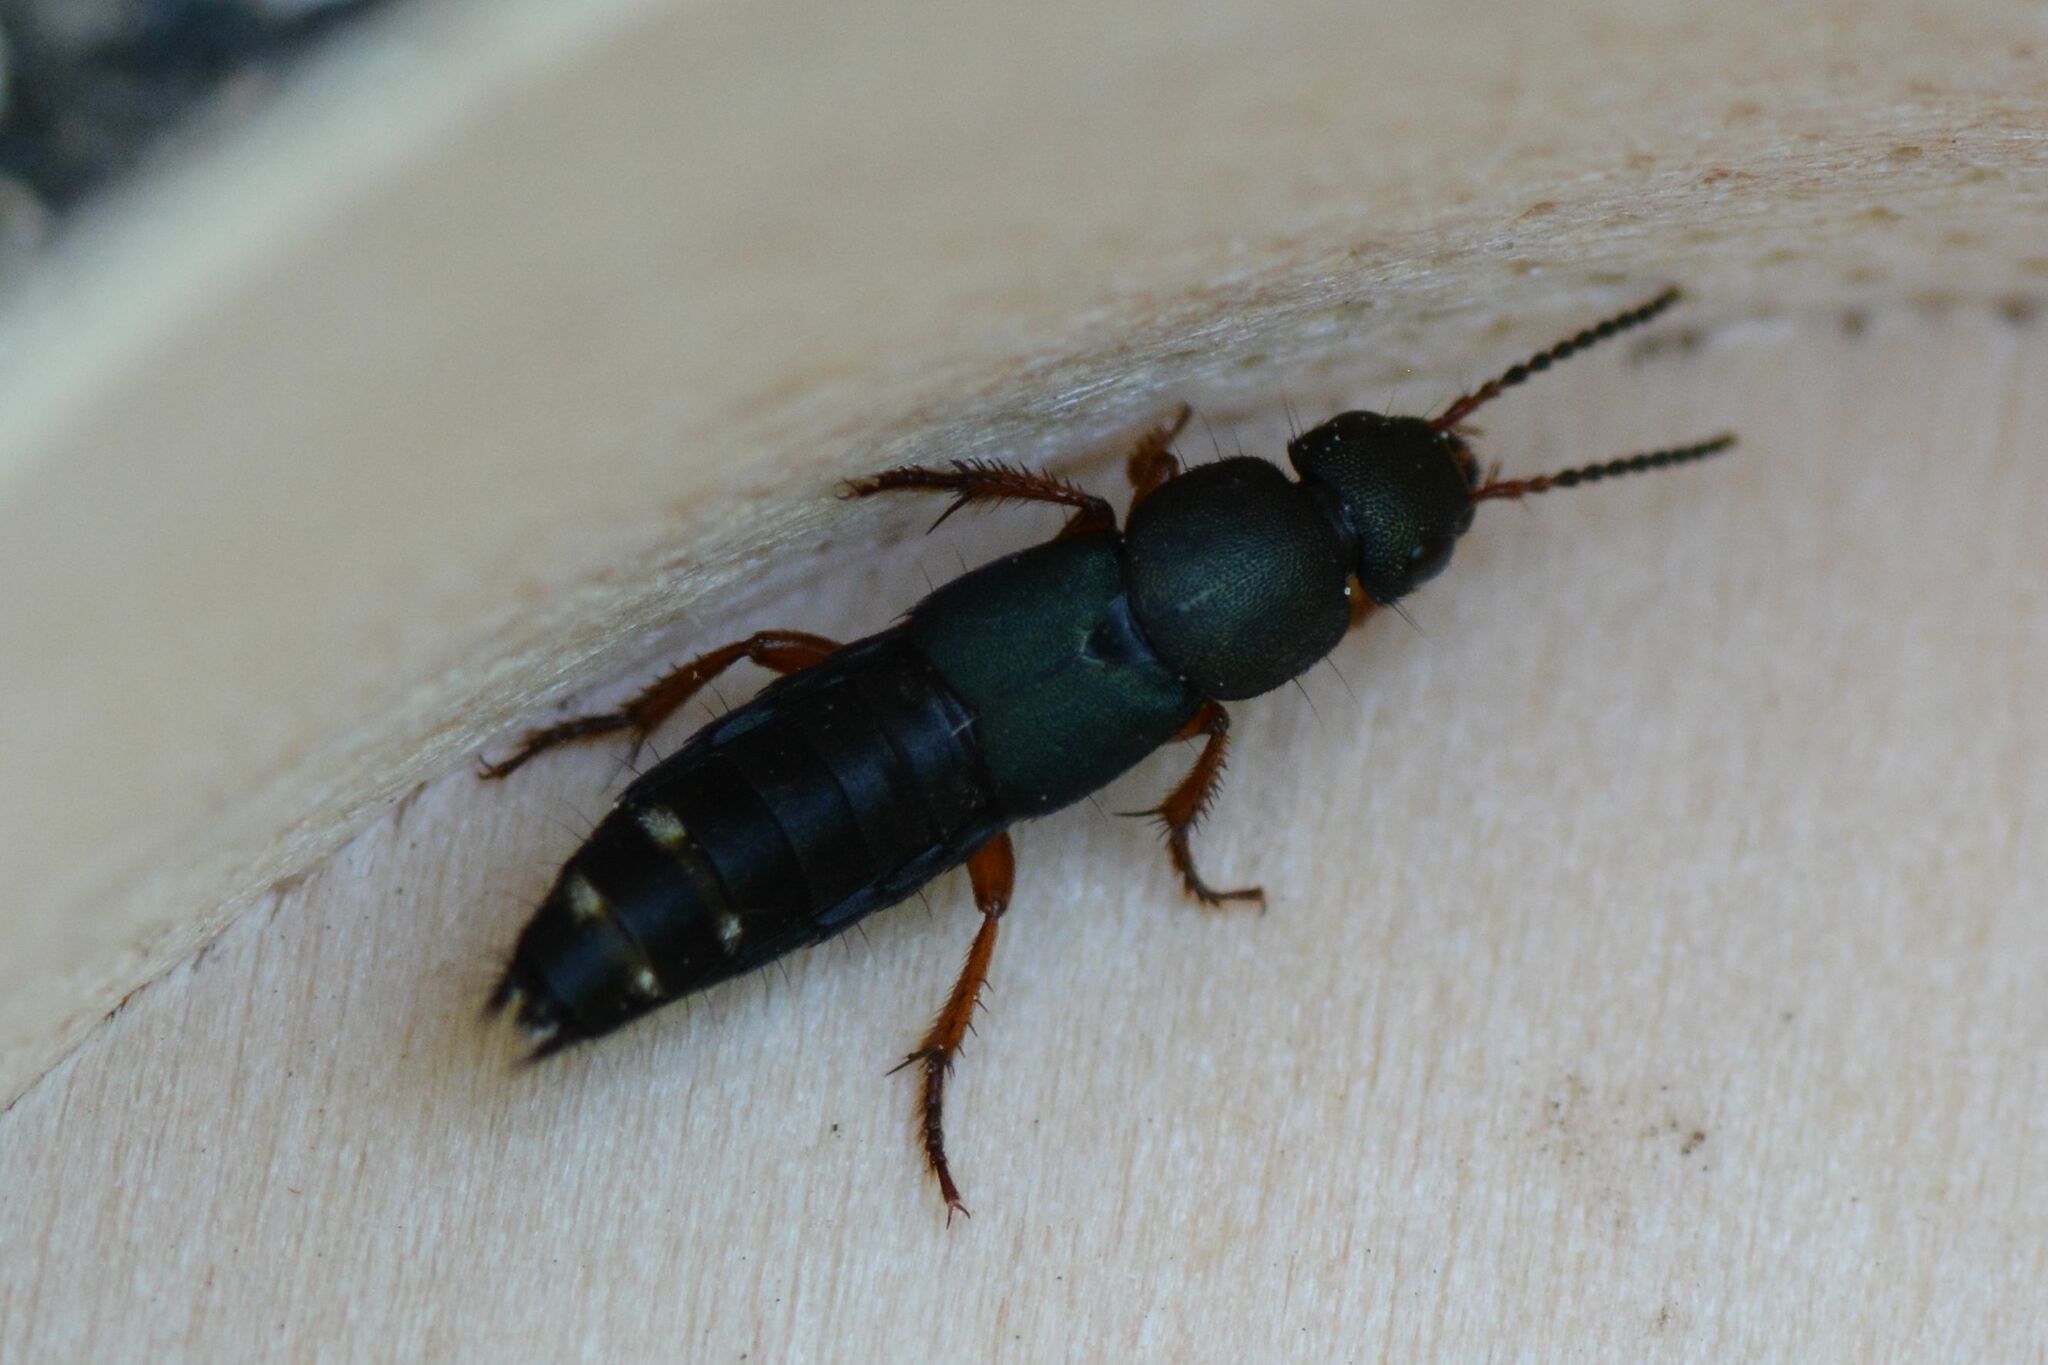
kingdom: Animalia
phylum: Arthropoda
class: Insecta
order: Coleoptera
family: Staphylinidae
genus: Platydracus
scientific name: Platydracus fulvipes
